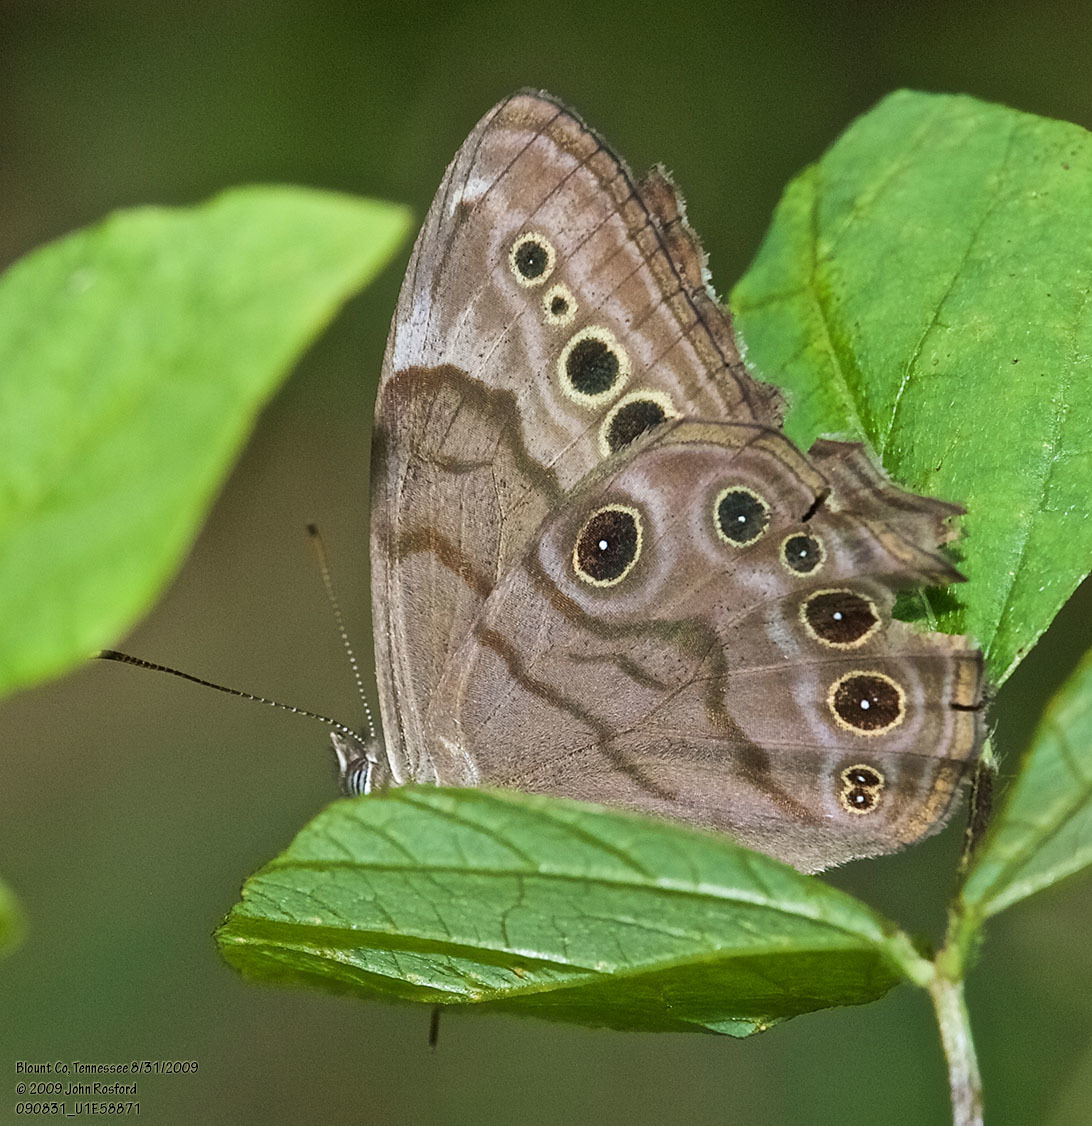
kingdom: Animalia
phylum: Arthropoda
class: Insecta
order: Lepidoptera
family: Nymphalidae
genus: Lethe
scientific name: Lethe anthedon
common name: Northern pearly-eye
